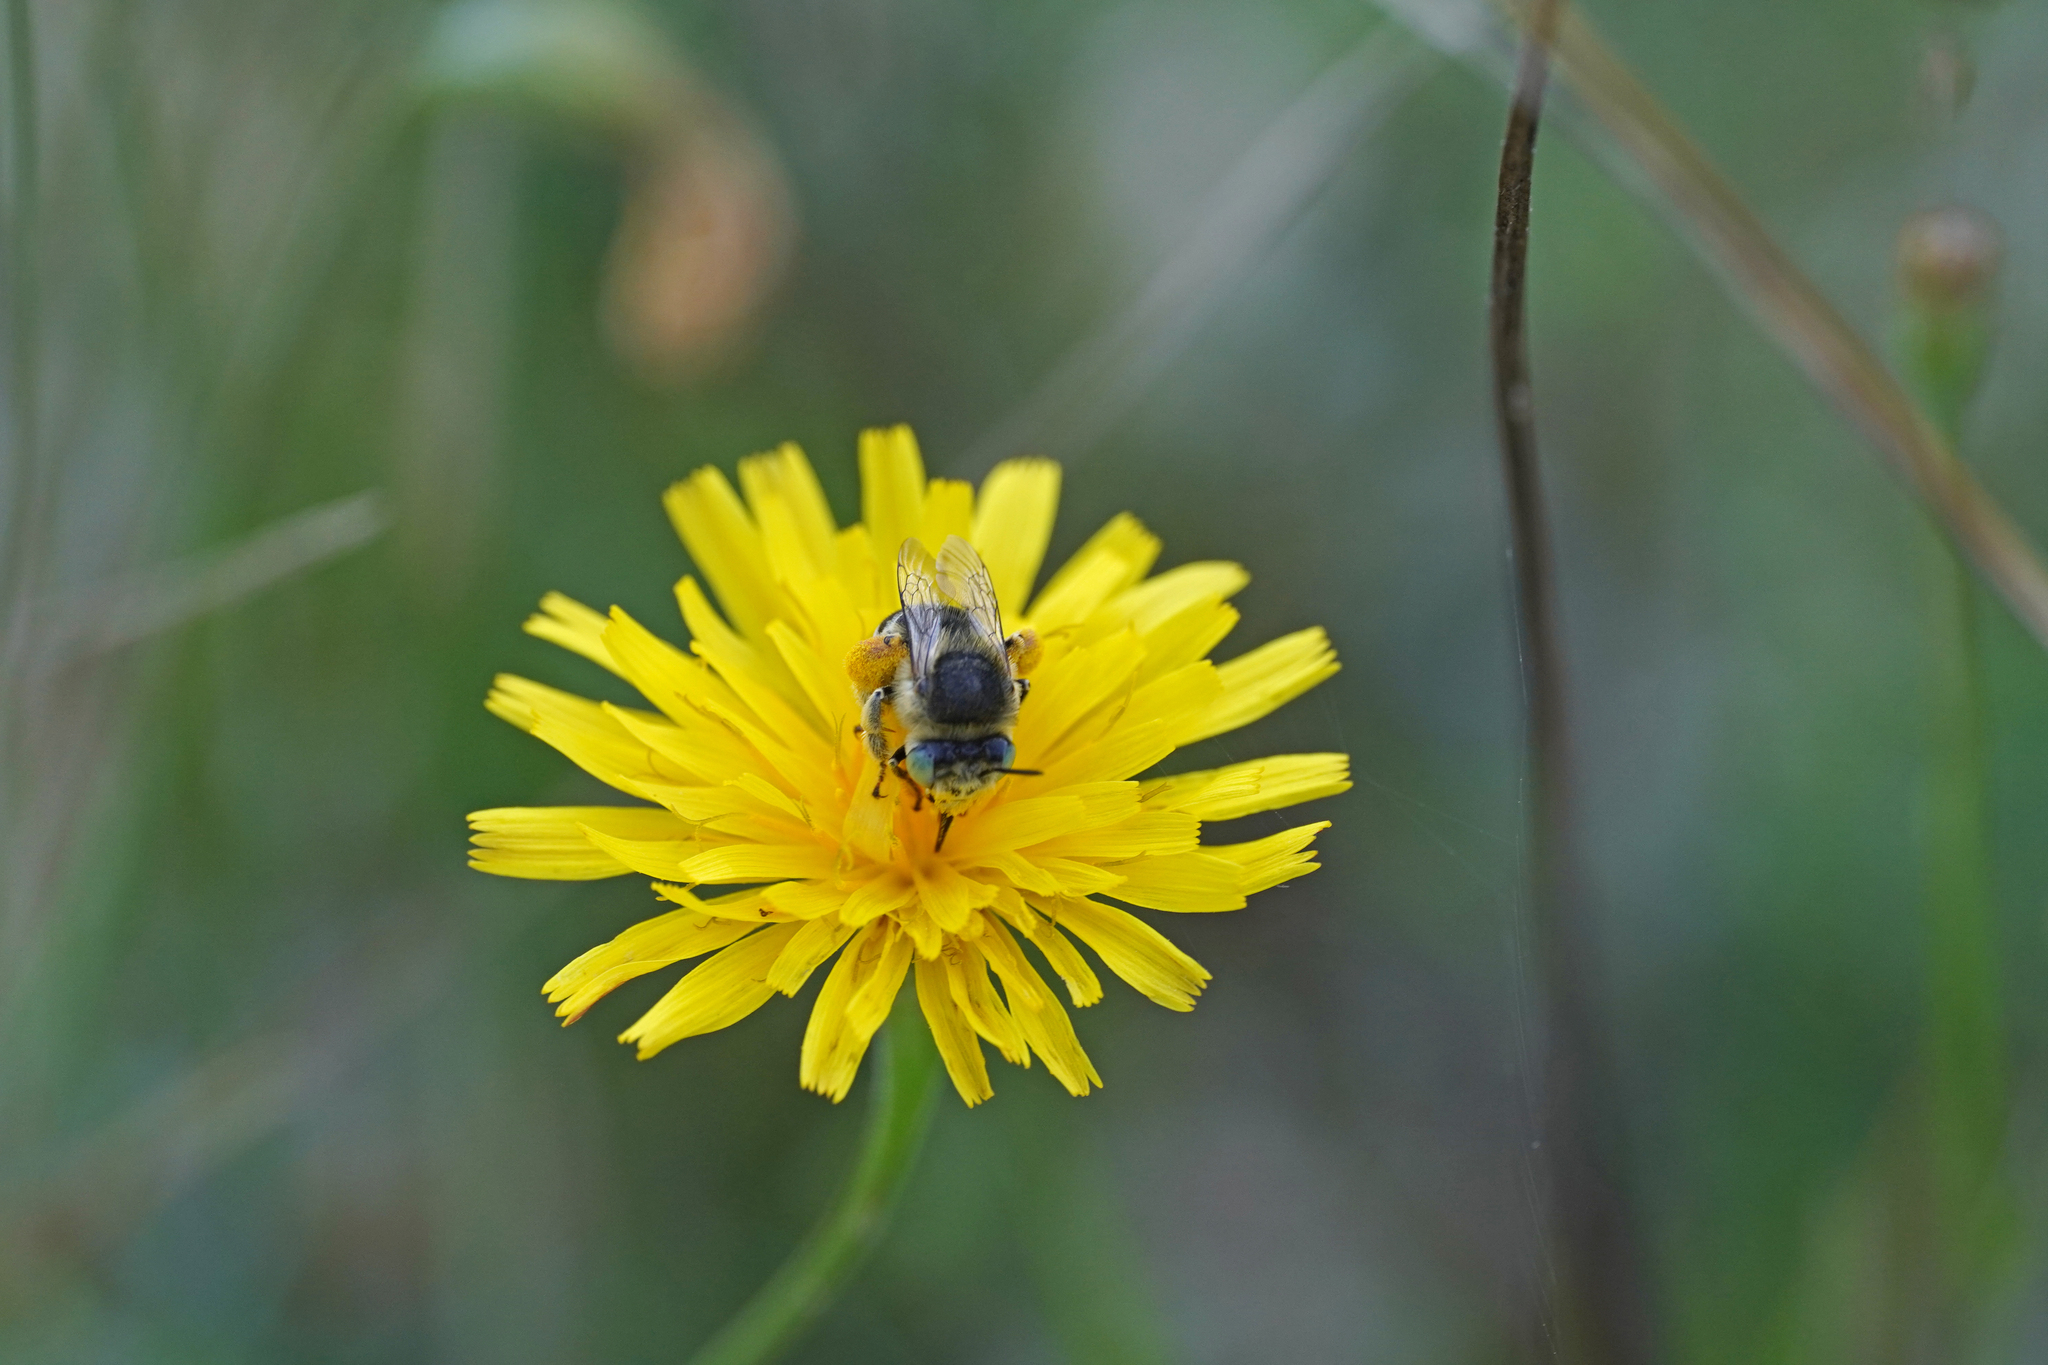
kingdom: Animalia
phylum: Arthropoda
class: Insecta
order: Hymenoptera
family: Apidae
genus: Anthophora
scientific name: Anthophora bimaculata
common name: Green-eyed flower bee
